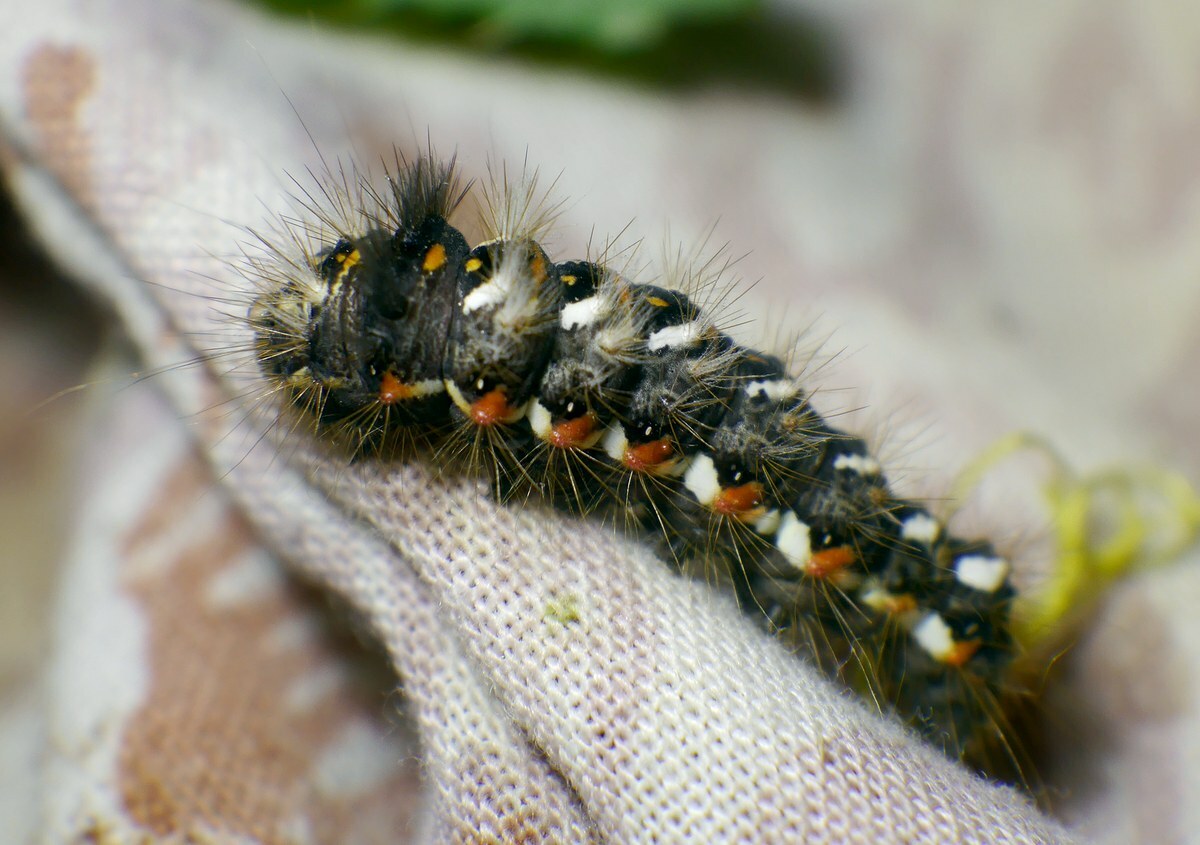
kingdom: Animalia
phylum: Arthropoda
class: Insecta
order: Lepidoptera
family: Noctuidae
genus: Acronicta
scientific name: Acronicta rumicis
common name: Knot grass
